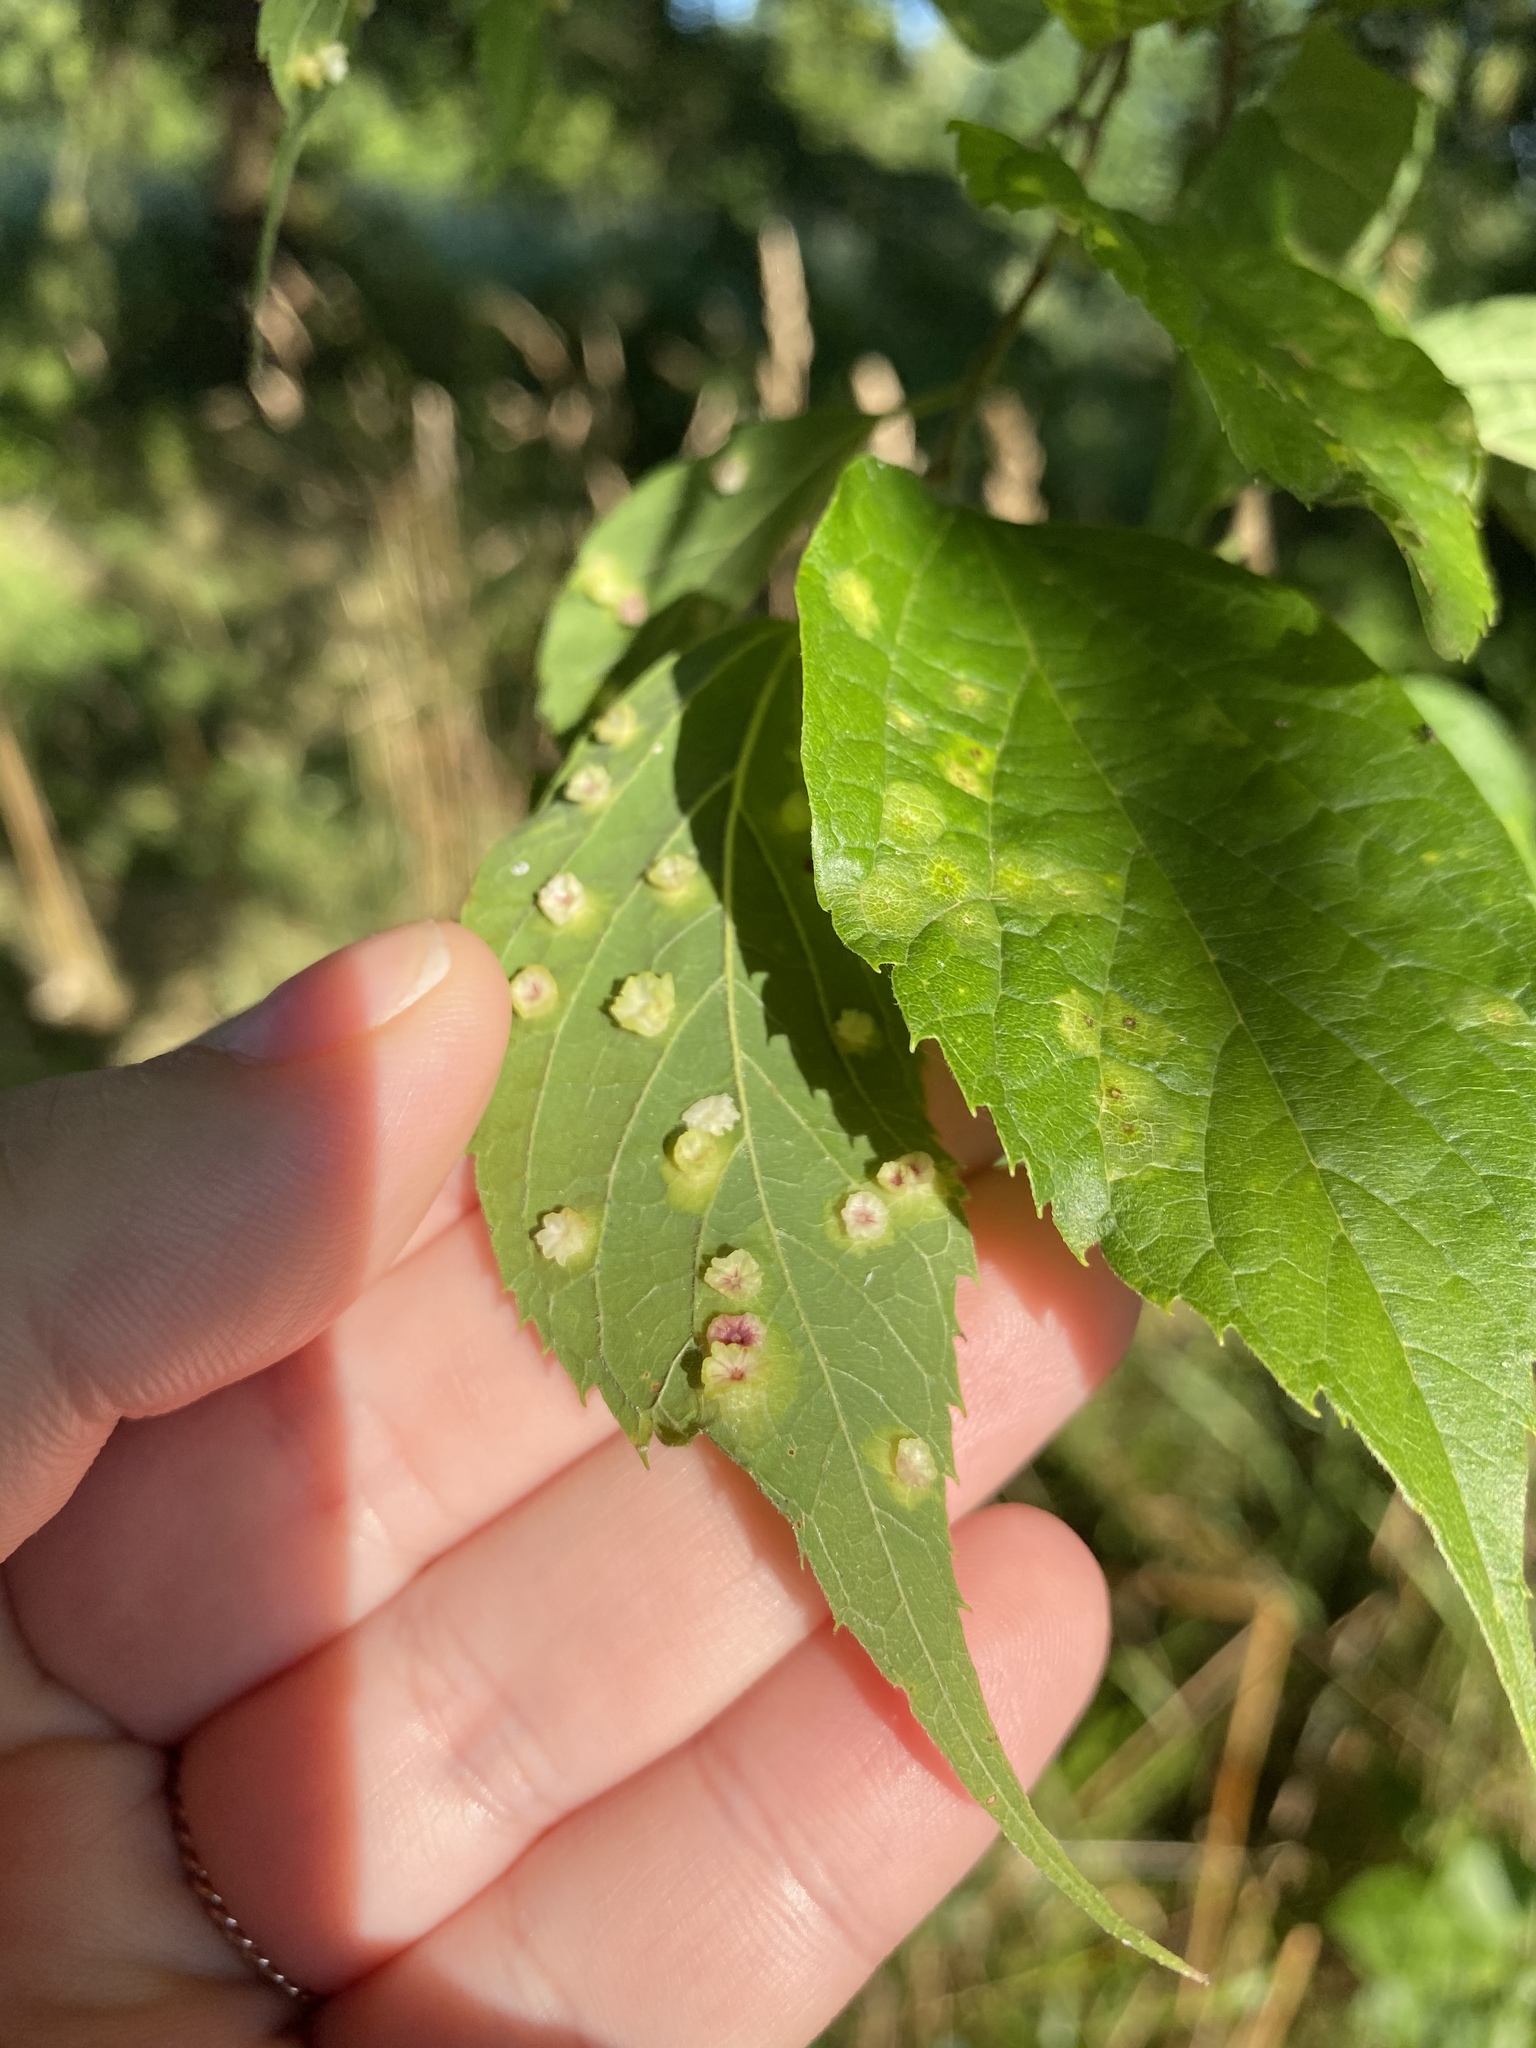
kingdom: Animalia
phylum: Arthropoda
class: Insecta
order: Hemiptera
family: Aphalaridae
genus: Pachypsylla
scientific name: Pachypsylla celtidisasterisca
